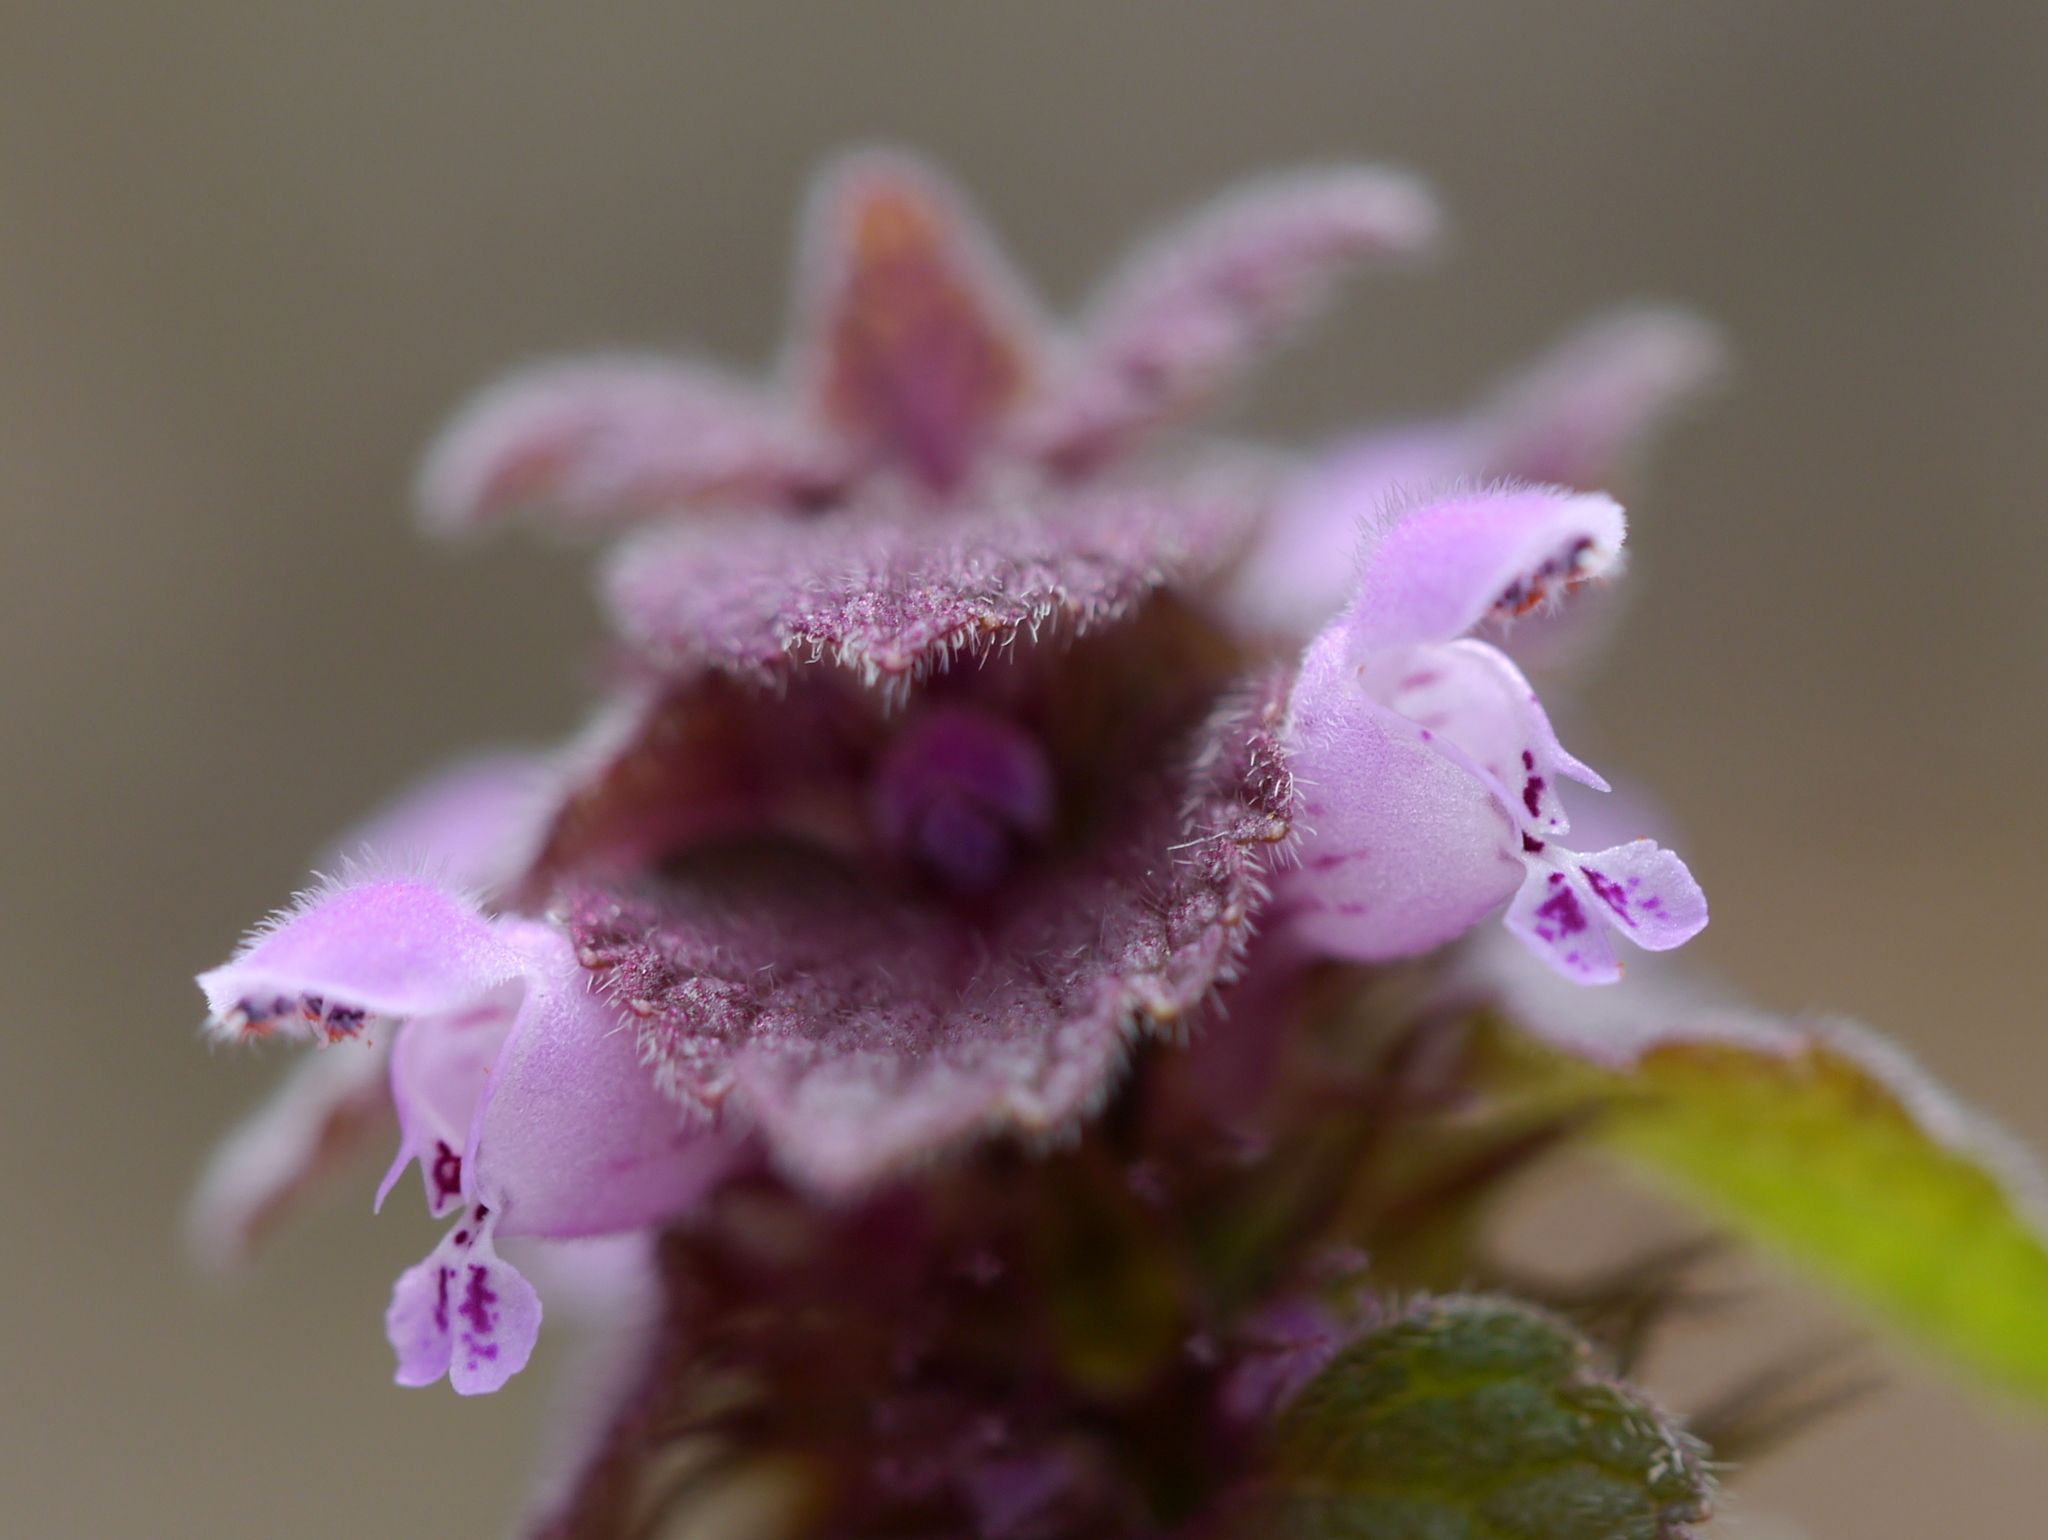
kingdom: Plantae
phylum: Tracheophyta
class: Magnoliopsida
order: Lamiales
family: Lamiaceae
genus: Lamium
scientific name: Lamium purpureum
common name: Red dead-nettle
